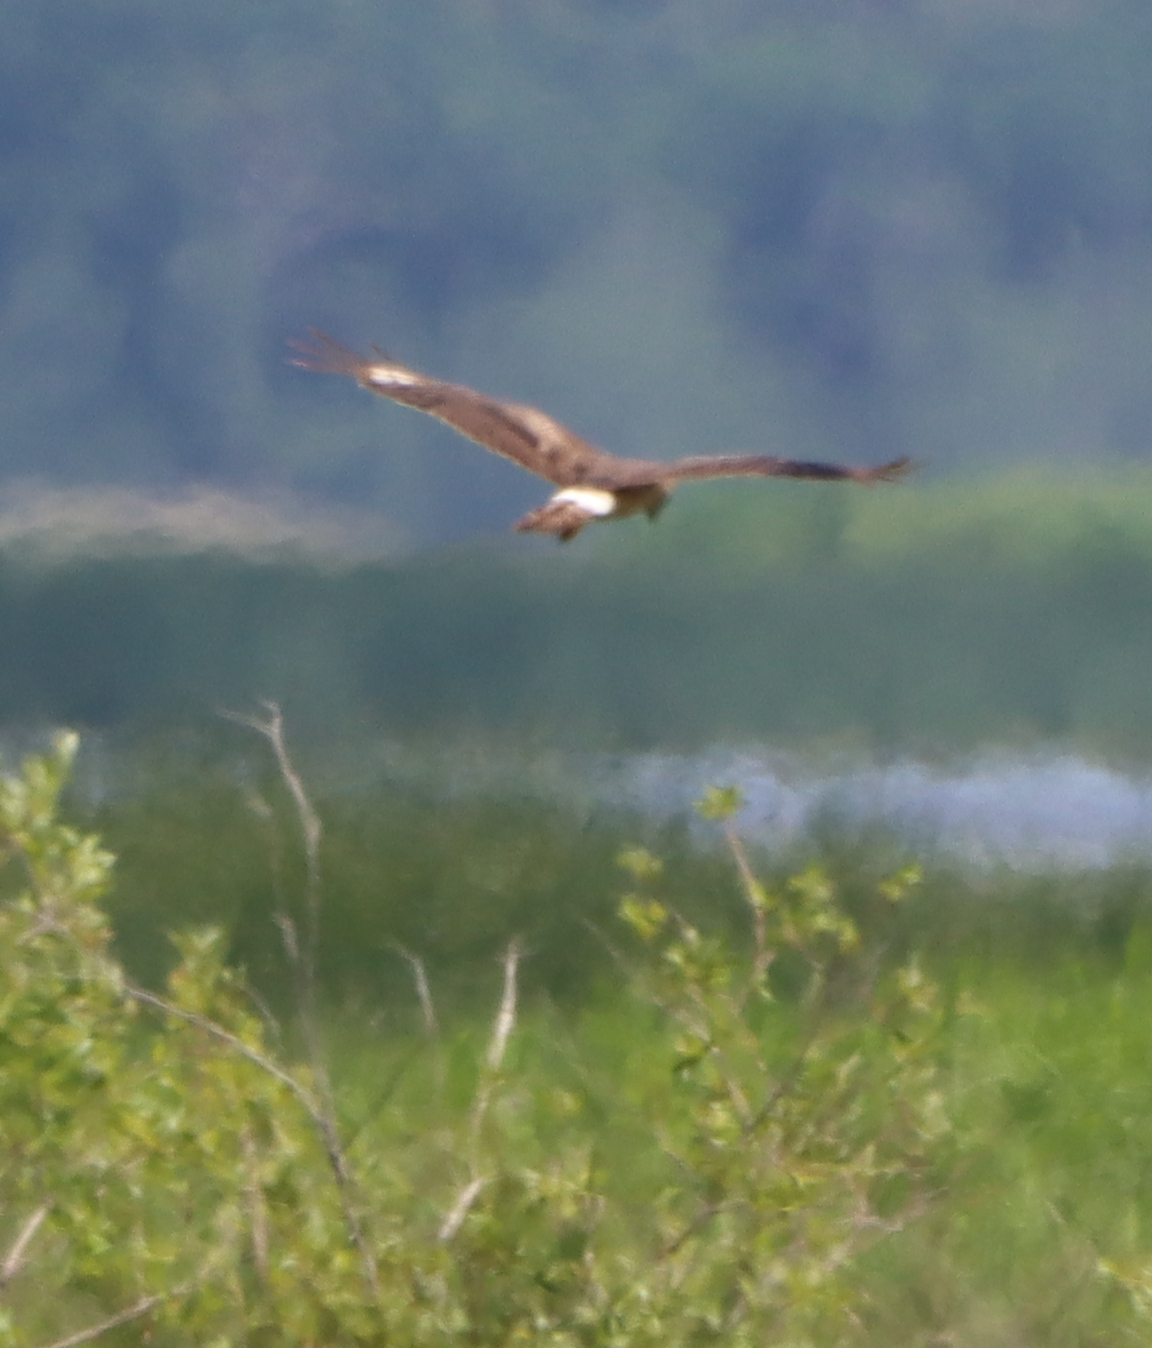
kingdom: Animalia
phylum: Chordata
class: Aves
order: Accipitriformes
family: Accipitridae
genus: Circus
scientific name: Circus cyaneus
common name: Hen harrier
